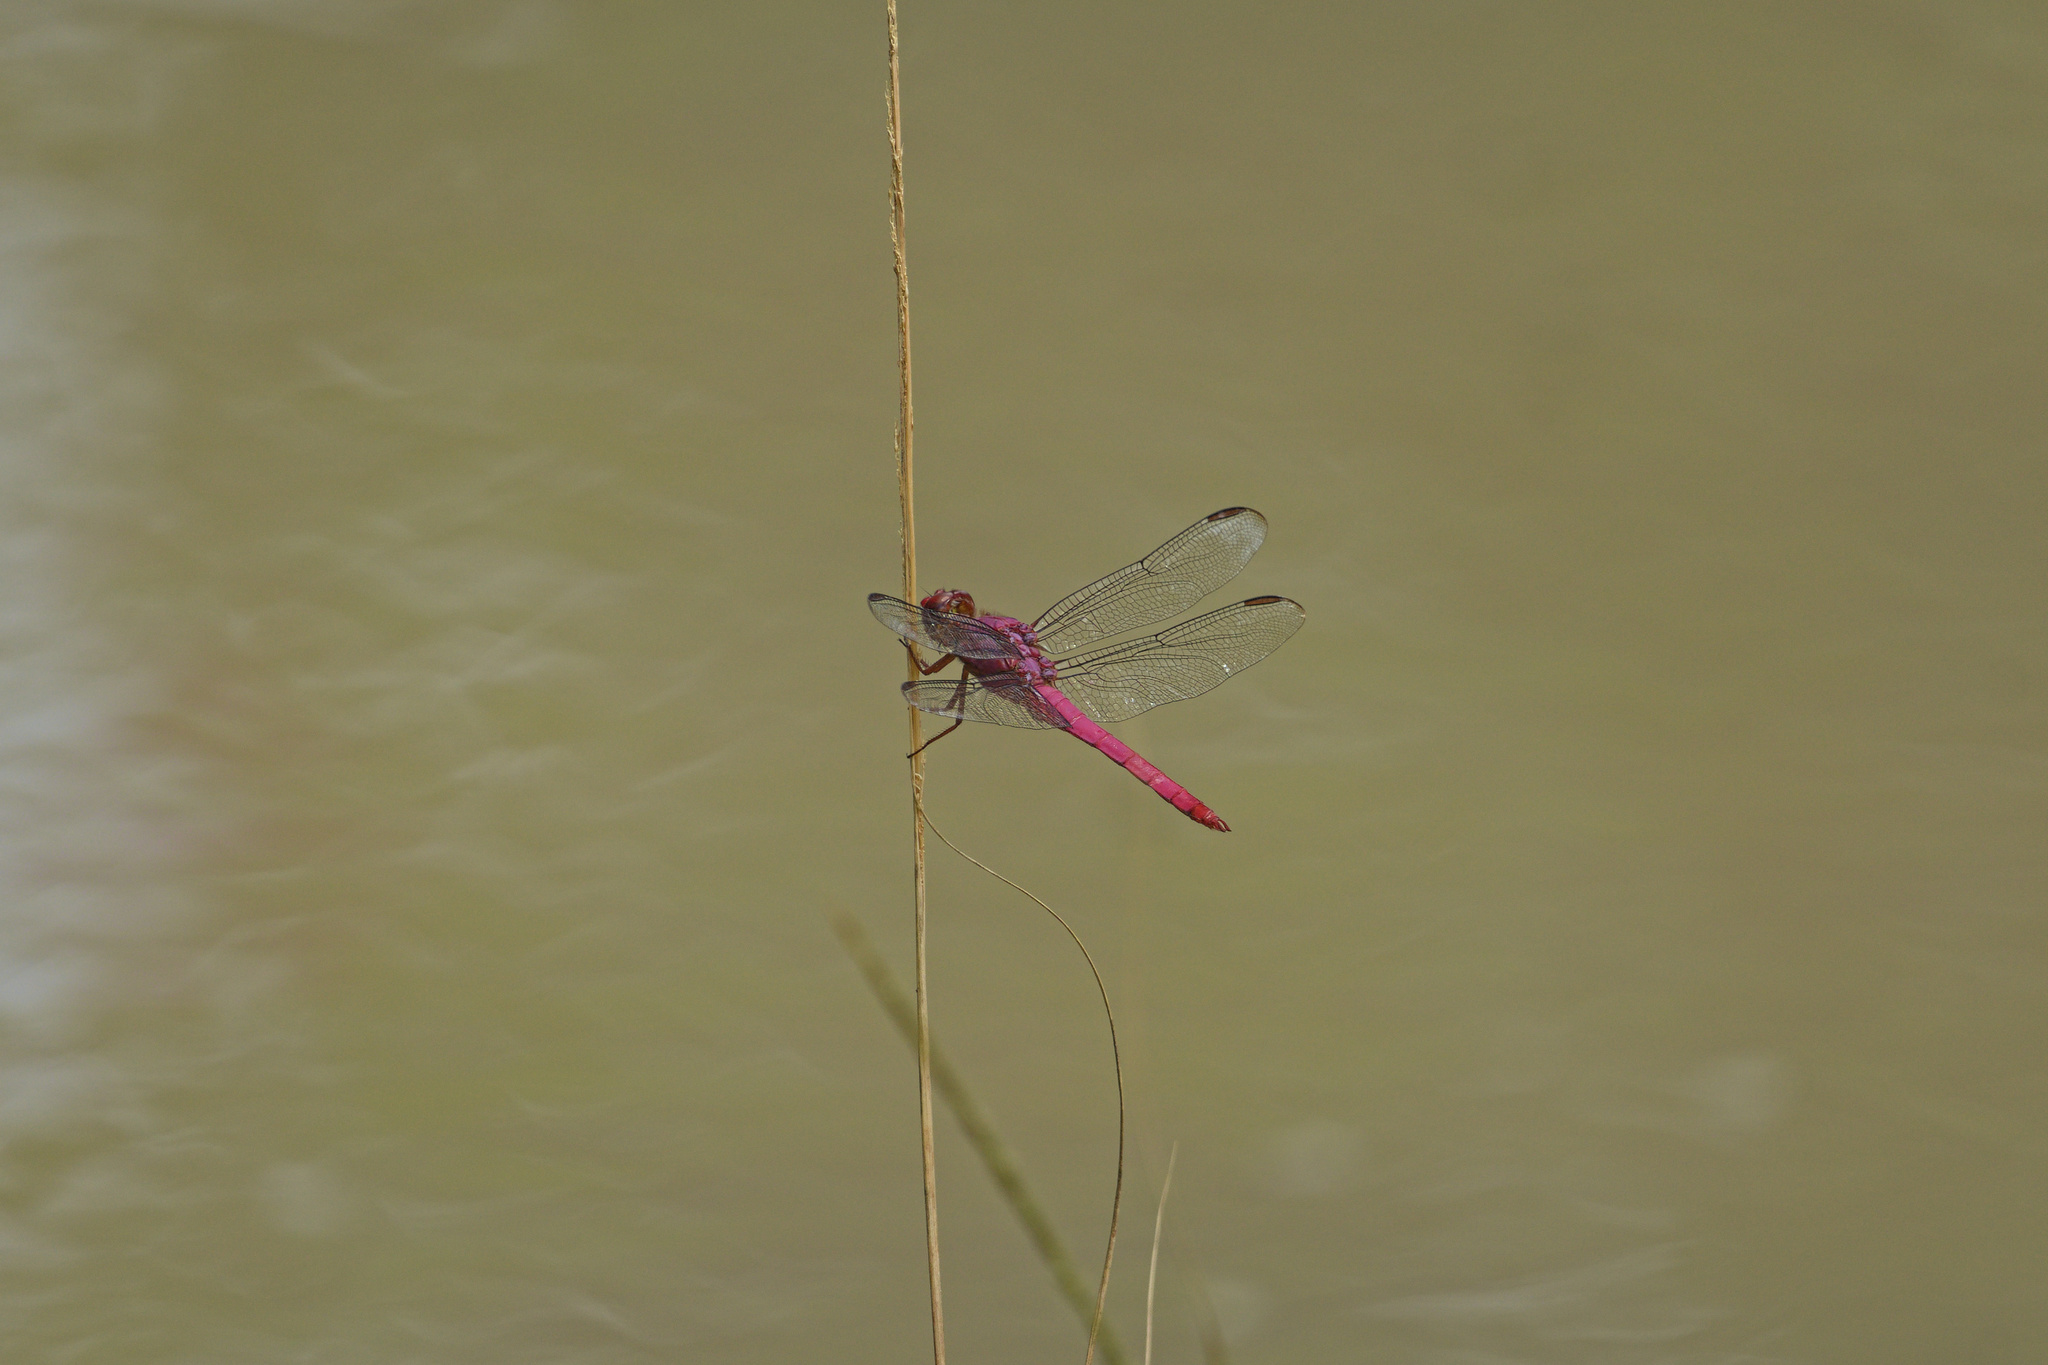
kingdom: Animalia
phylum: Arthropoda
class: Insecta
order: Odonata
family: Libellulidae
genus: Orthemis
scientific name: Orthemis discolor
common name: Carmine skimmer
